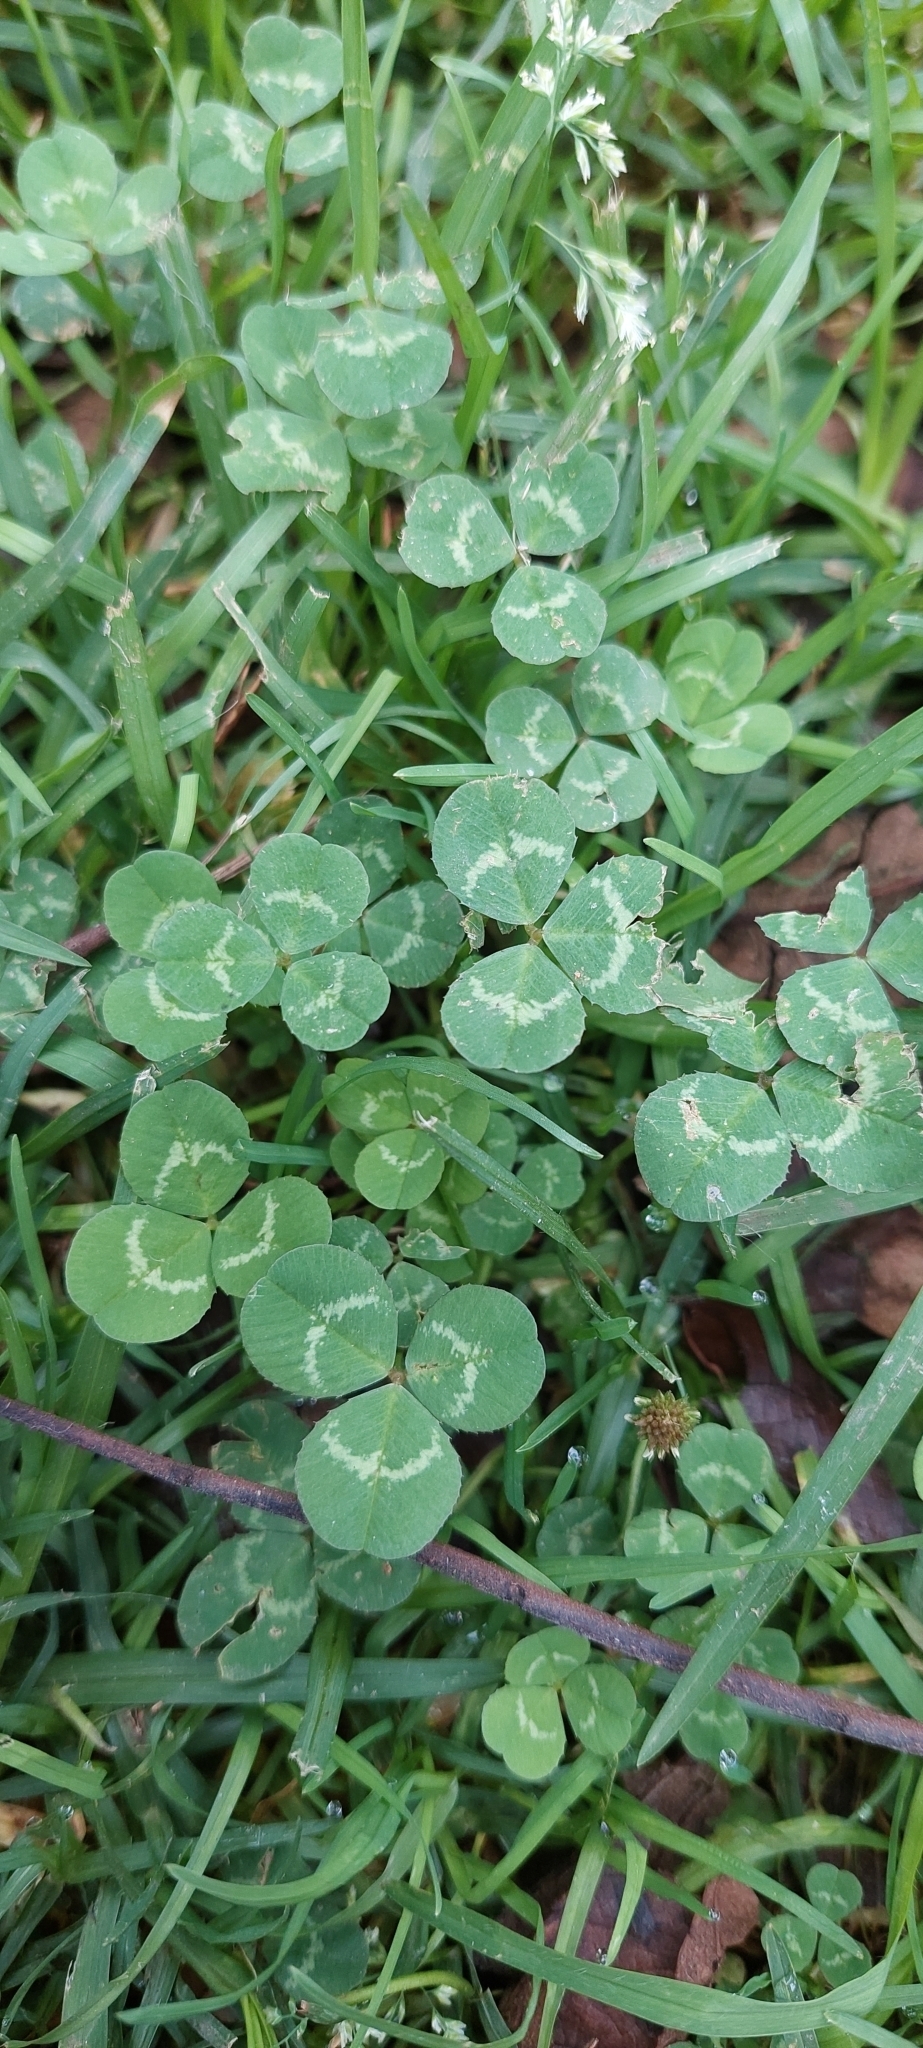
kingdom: Plantae
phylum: Tracheophyta
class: Magnoliopsida
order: Fabales
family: Fabaceae
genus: Trifolium
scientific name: Trifolium repens
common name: White clover
